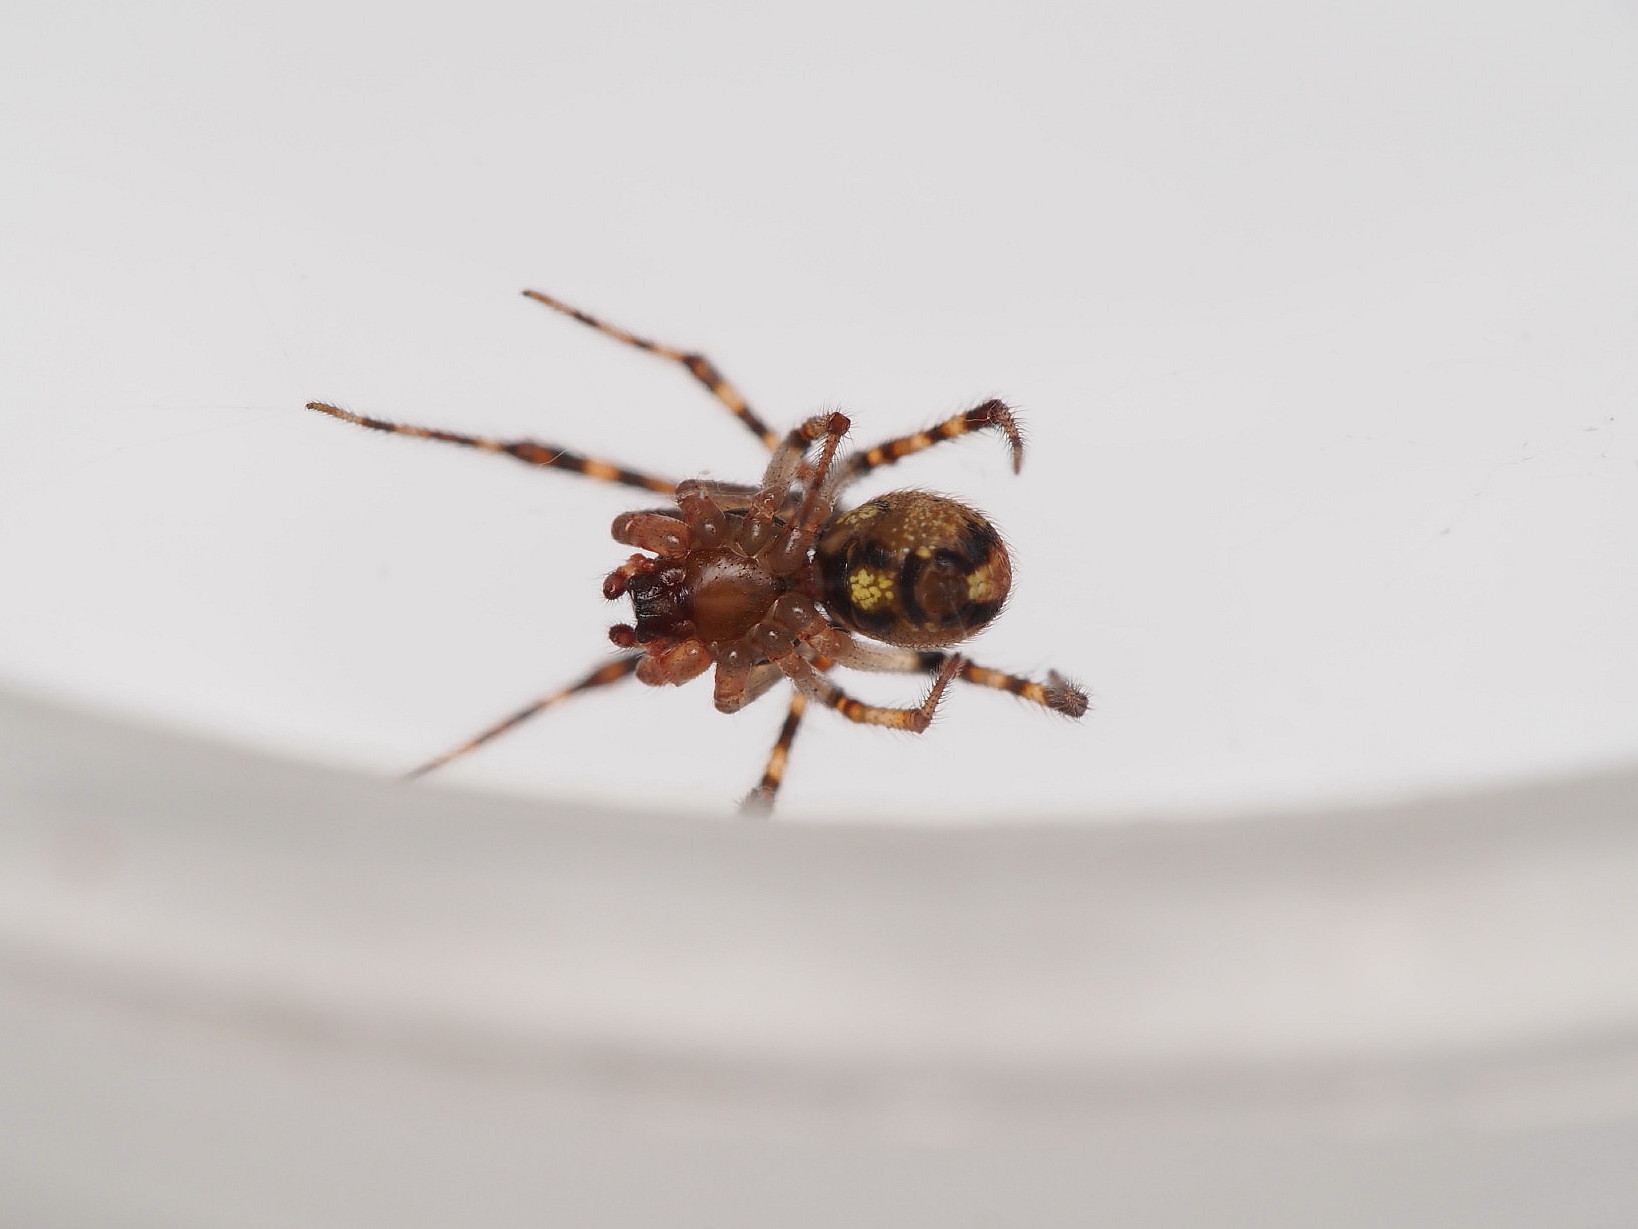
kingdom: Animalia
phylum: Arthropoda
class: Arachnida
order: Araneae
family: Theridiidae
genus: Cryptachaea
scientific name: Cryptachaea veruculata
